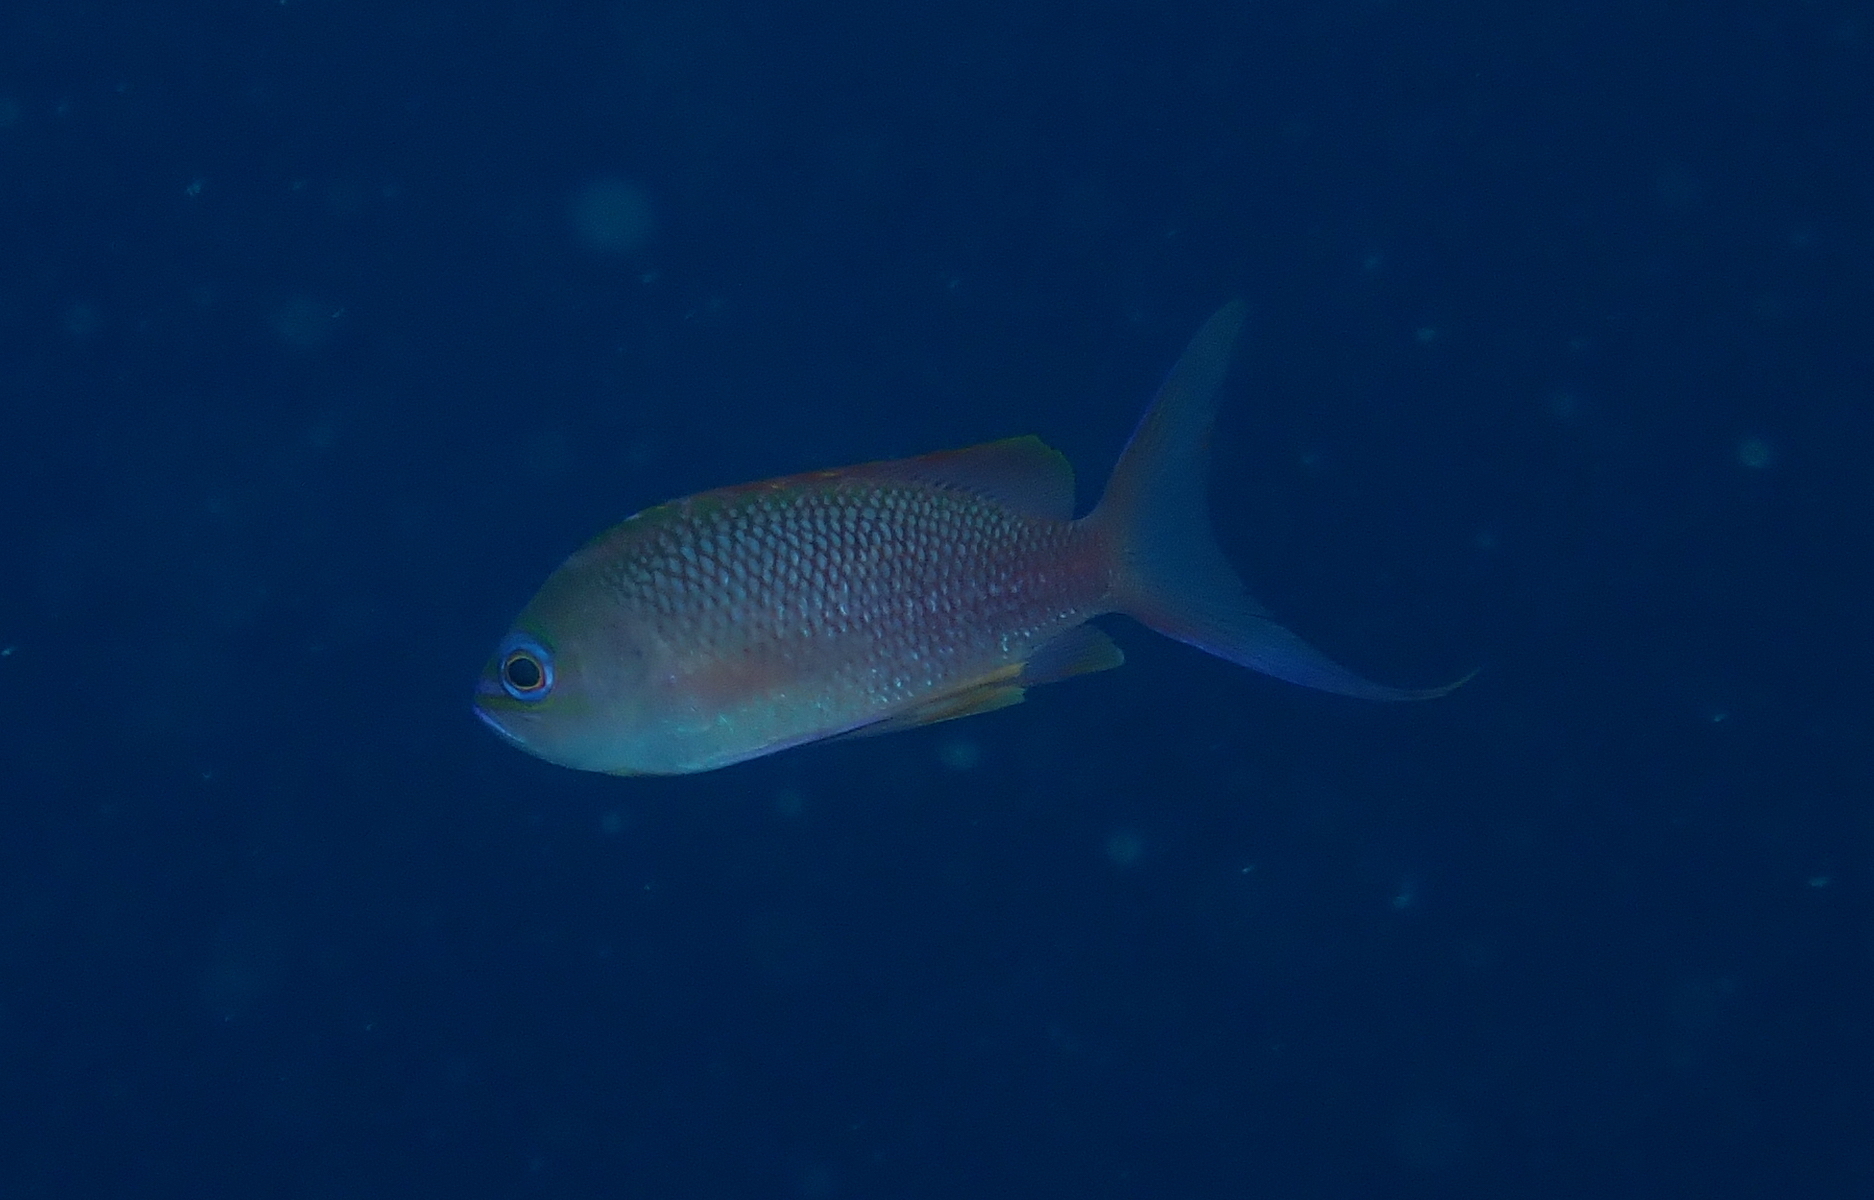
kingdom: Animalia
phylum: Chordata
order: Perciformes
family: Serranidae
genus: Anthias
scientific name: Anthias anthias
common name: Swallowtail seaperch
